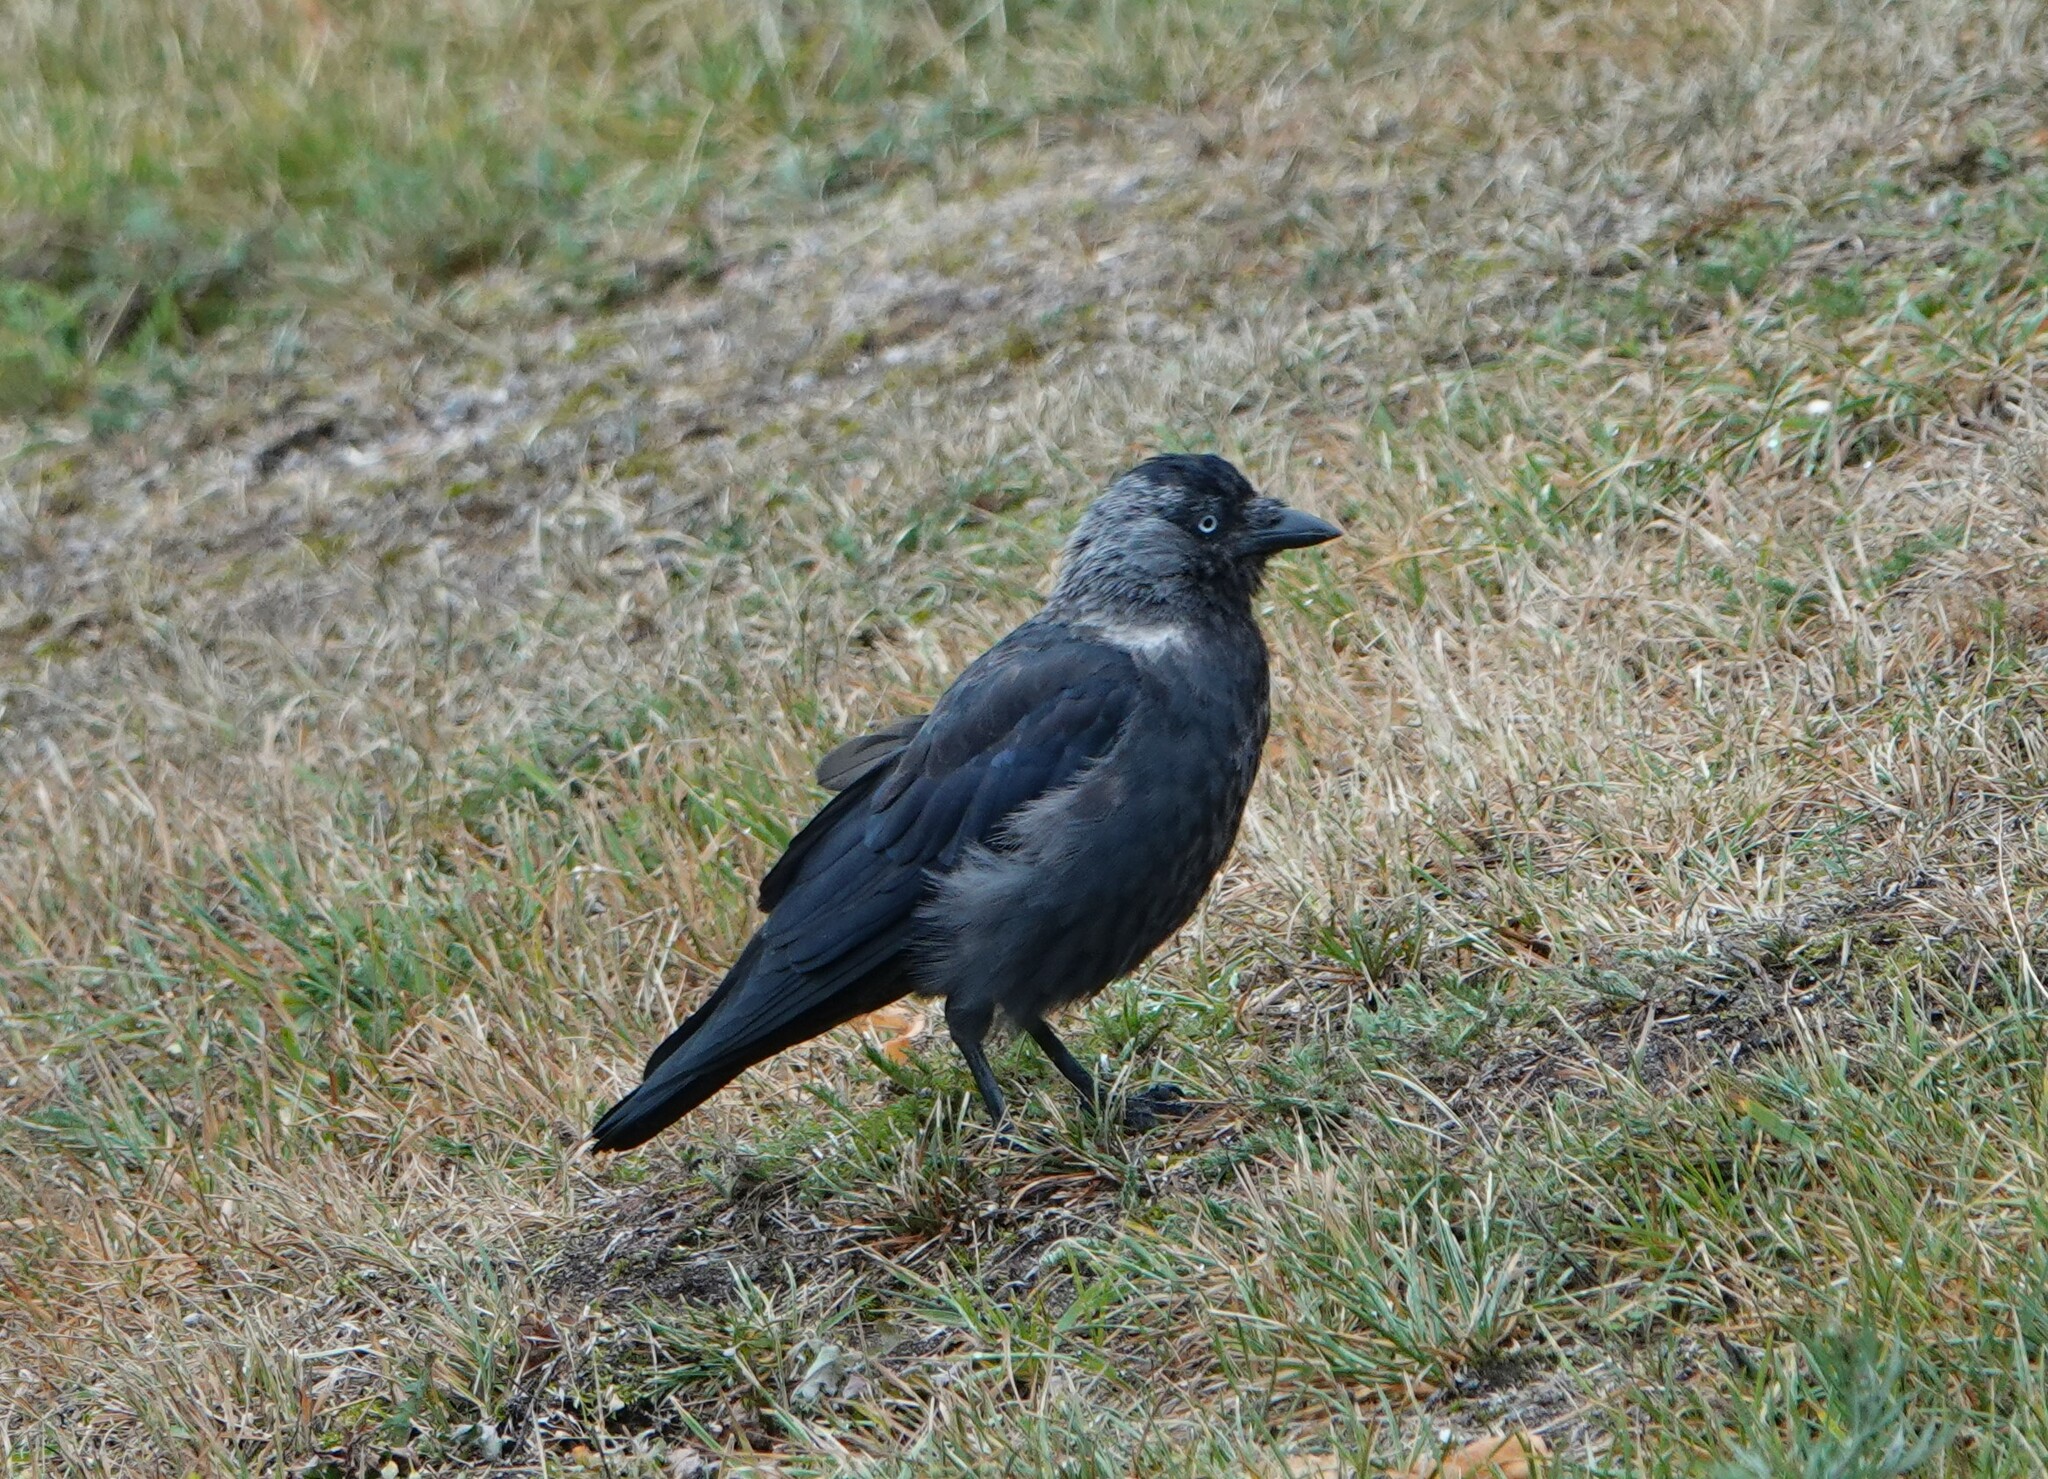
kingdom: Animalia
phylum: Chordata
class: Aves
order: Passeriformes
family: Corvidae
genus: Coloeus
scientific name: Coloeus monedula
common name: Western jackdaw
